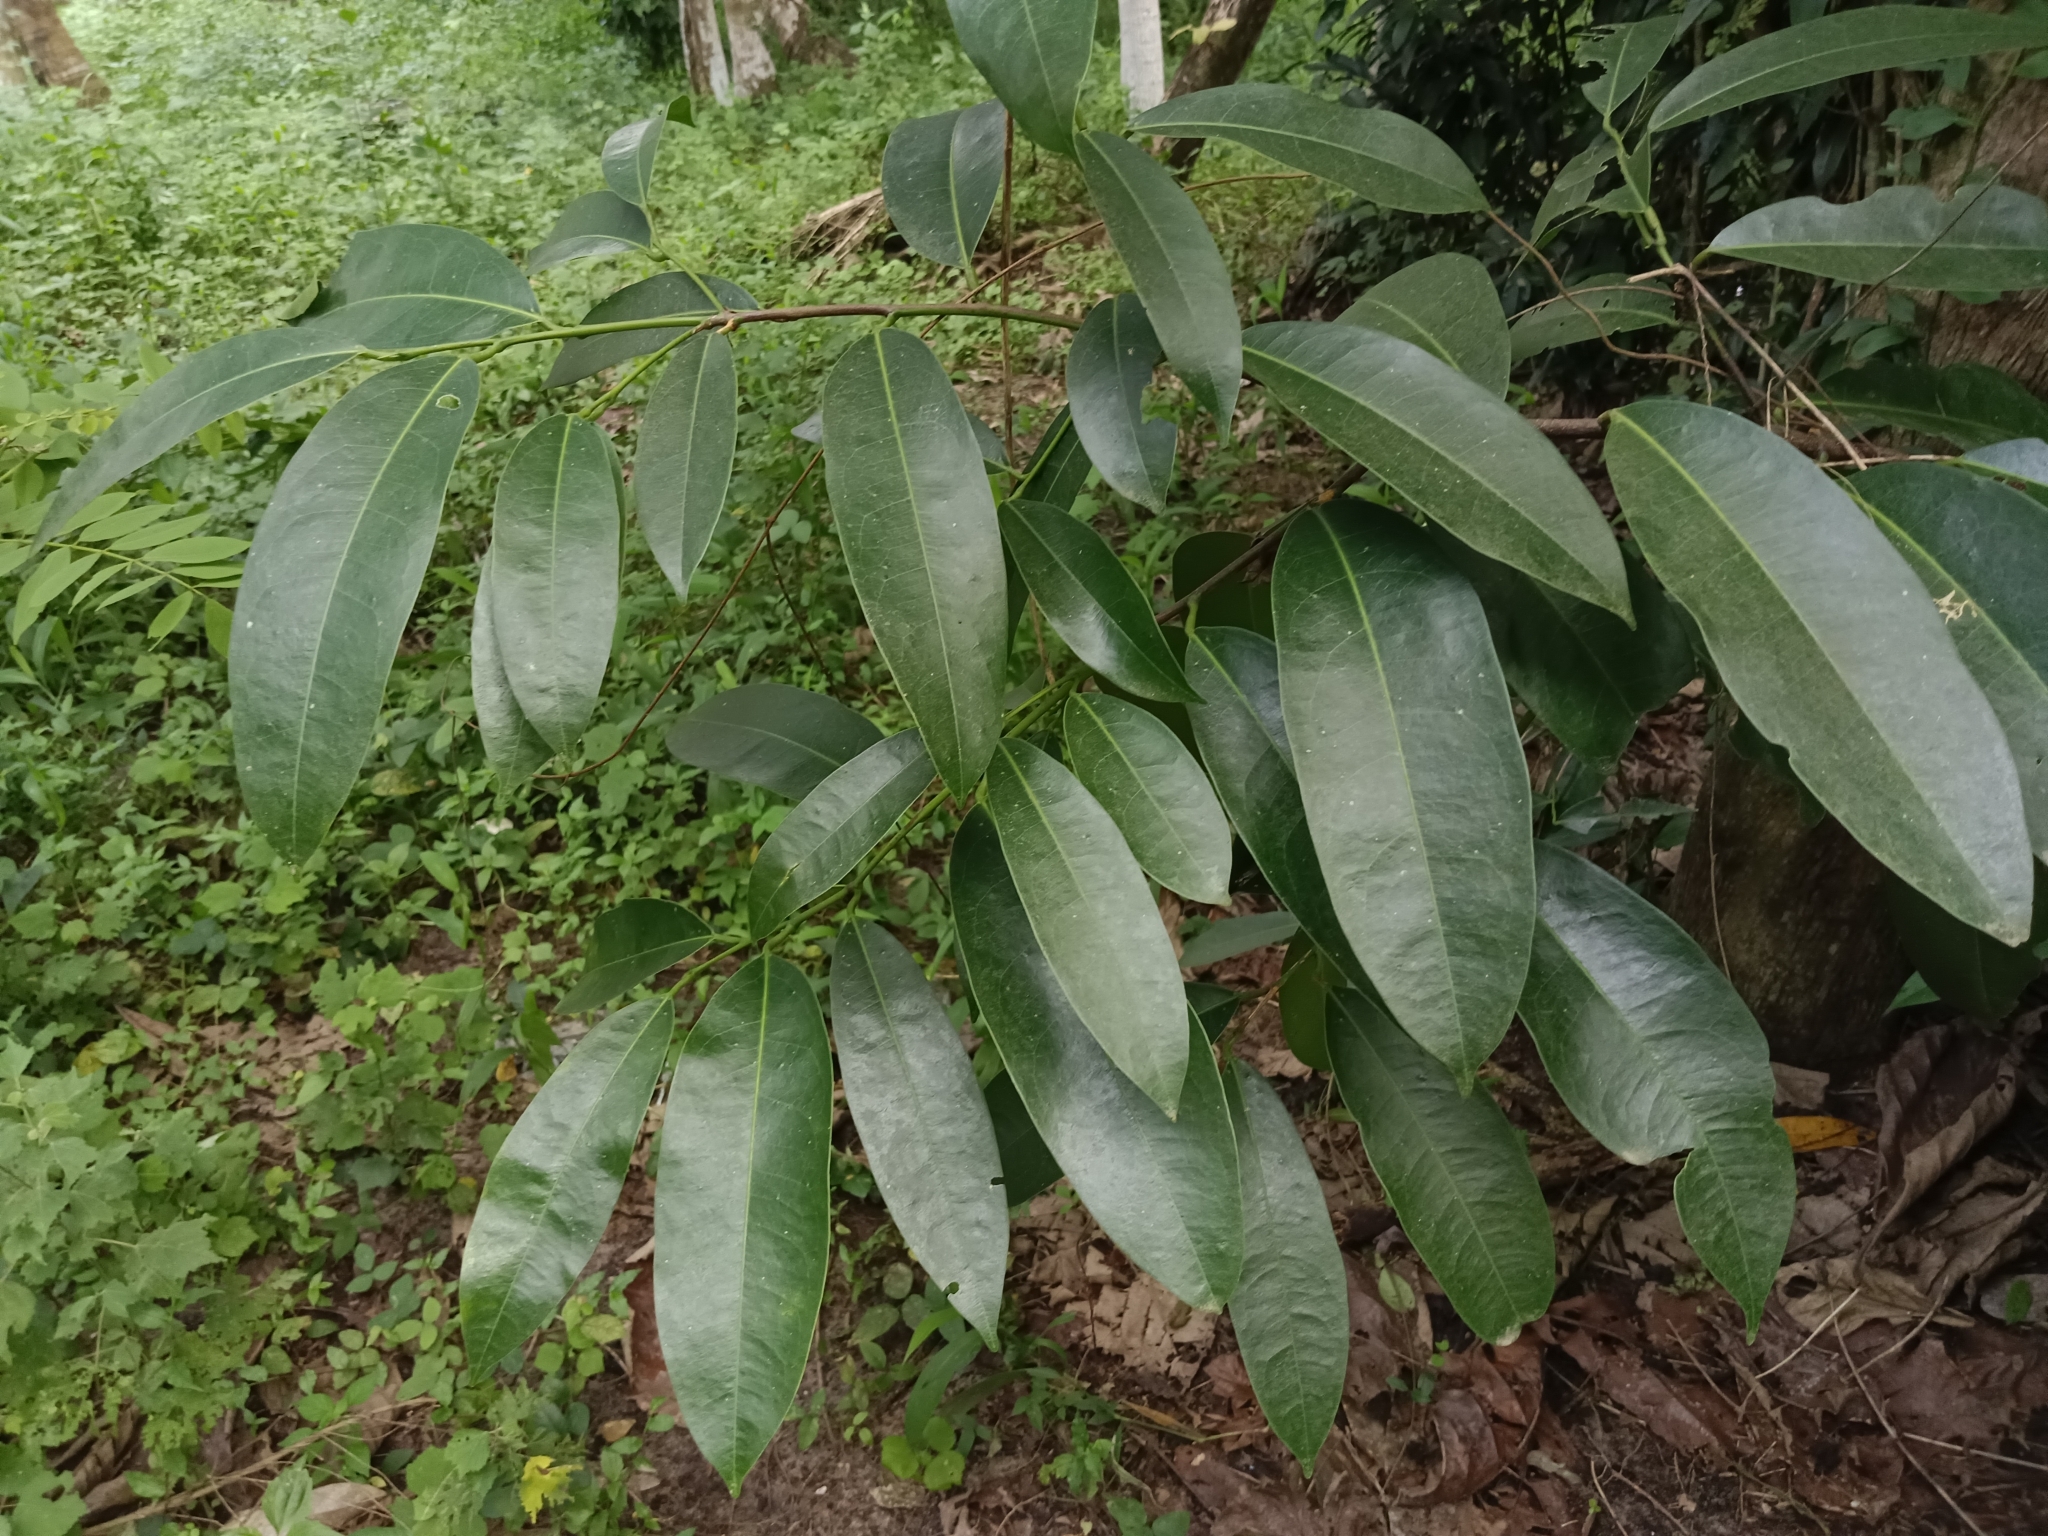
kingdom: Plantae
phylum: Tracheophyta
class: Magnoliopsida
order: Sapindales
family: Simaroubaceae
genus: Samadera
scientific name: Samadera indica
